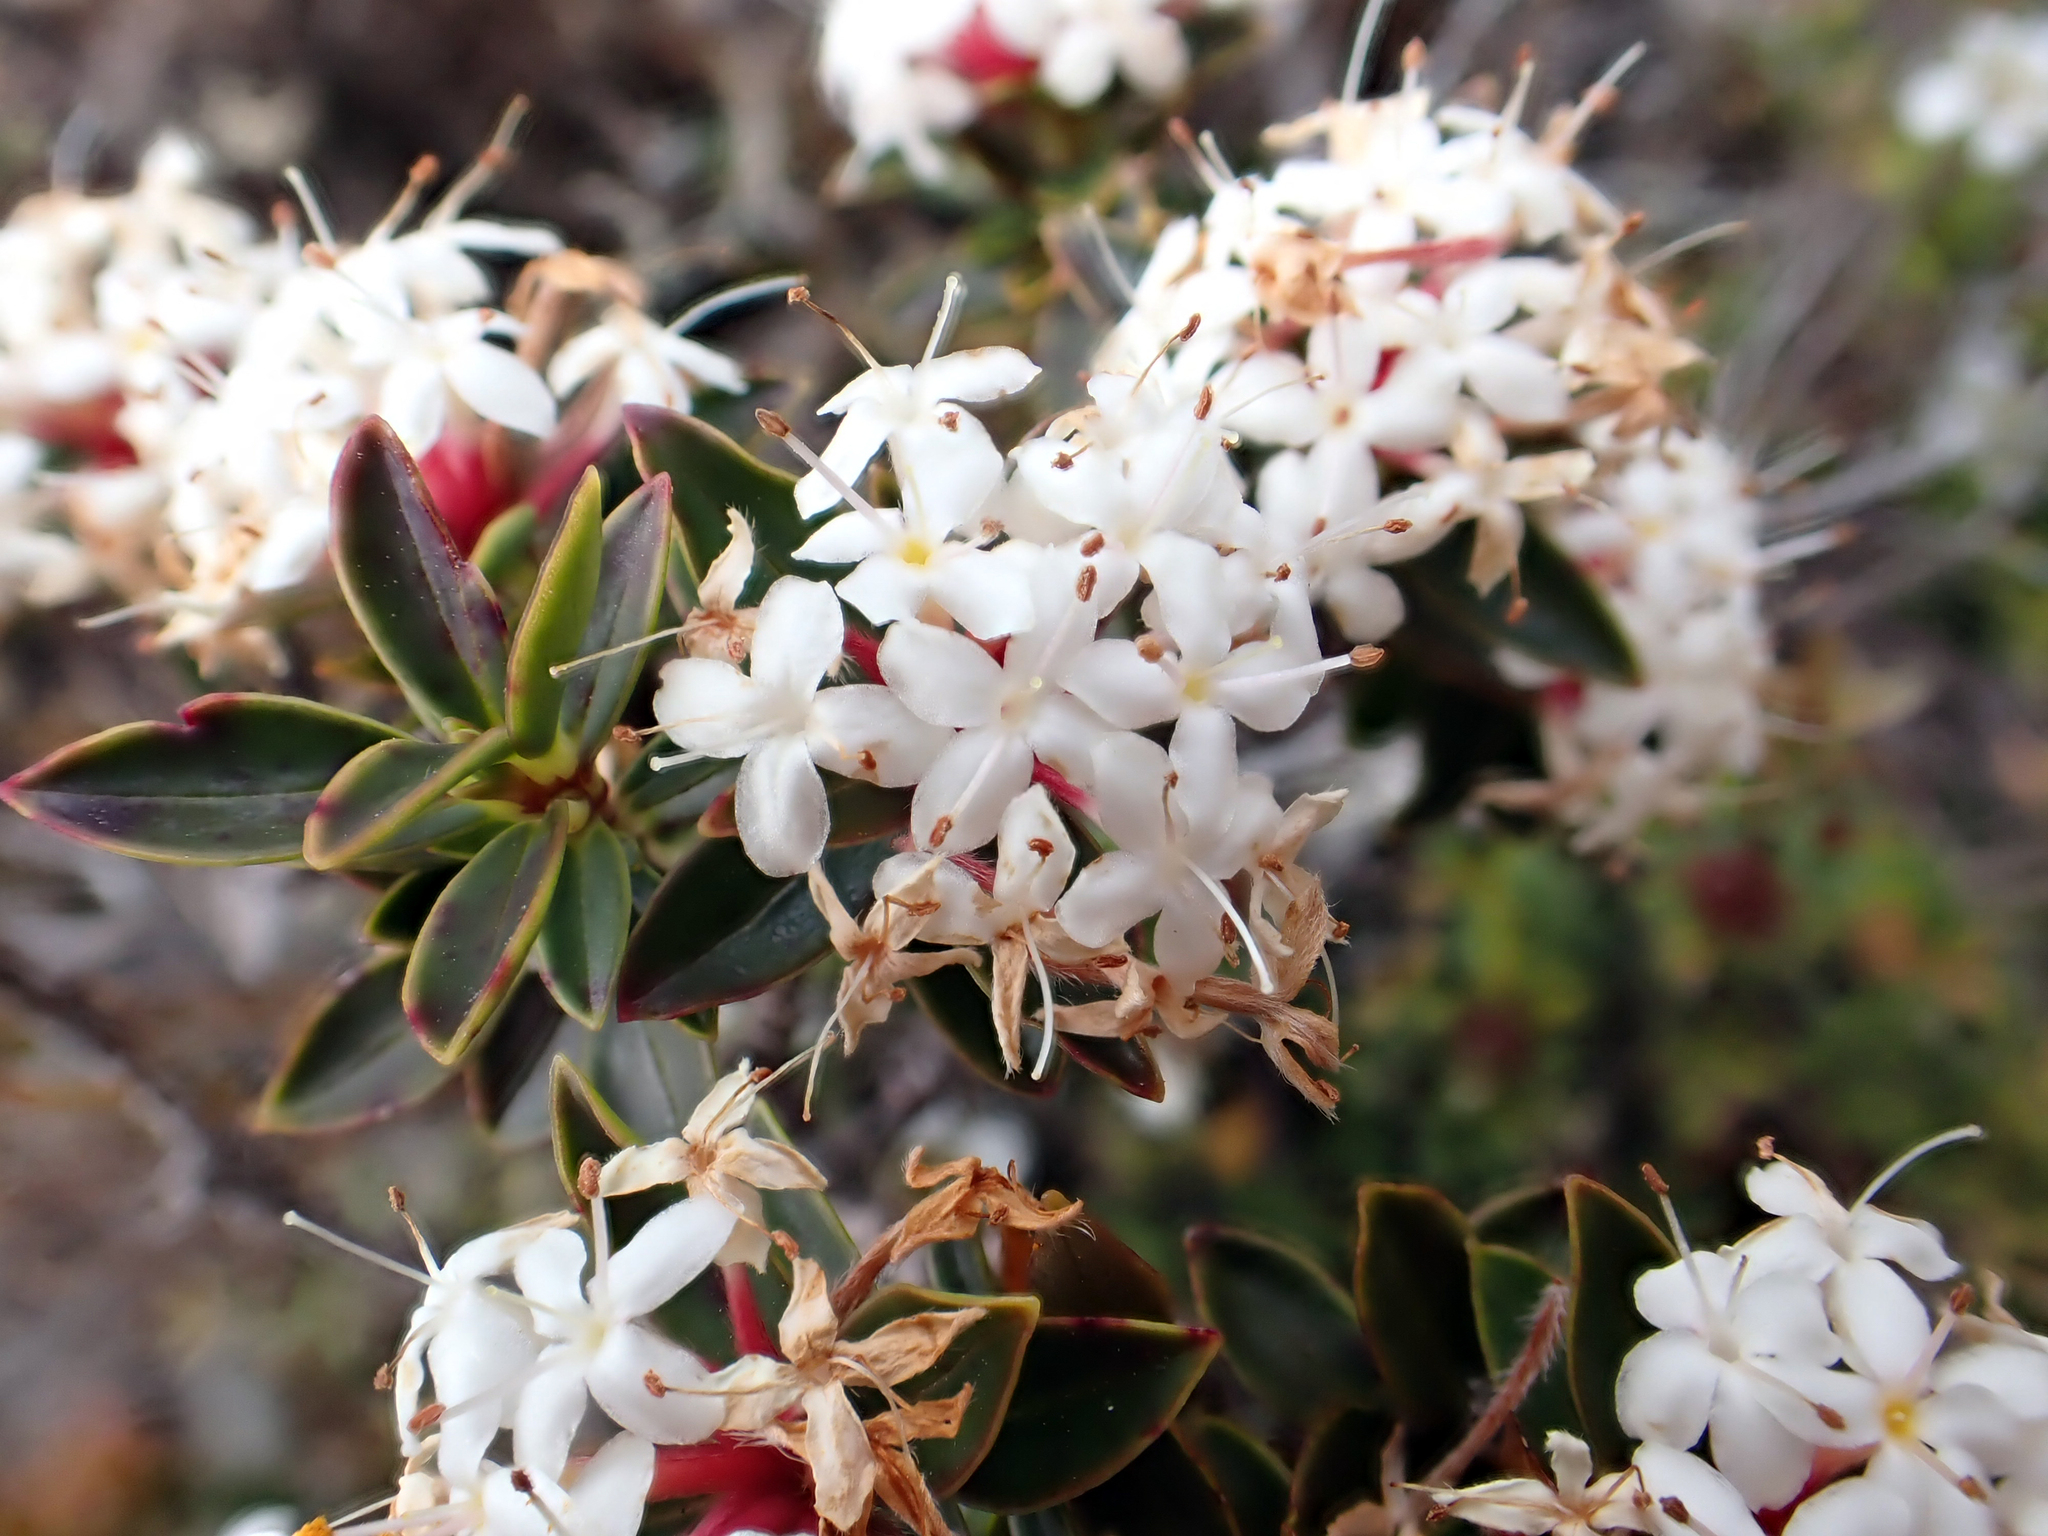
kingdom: Plantae
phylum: Tracheophyta
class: Magnoliopsida
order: Malvales
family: Thymelaeaceae
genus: Pimelea
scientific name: Pimelea gnidia
